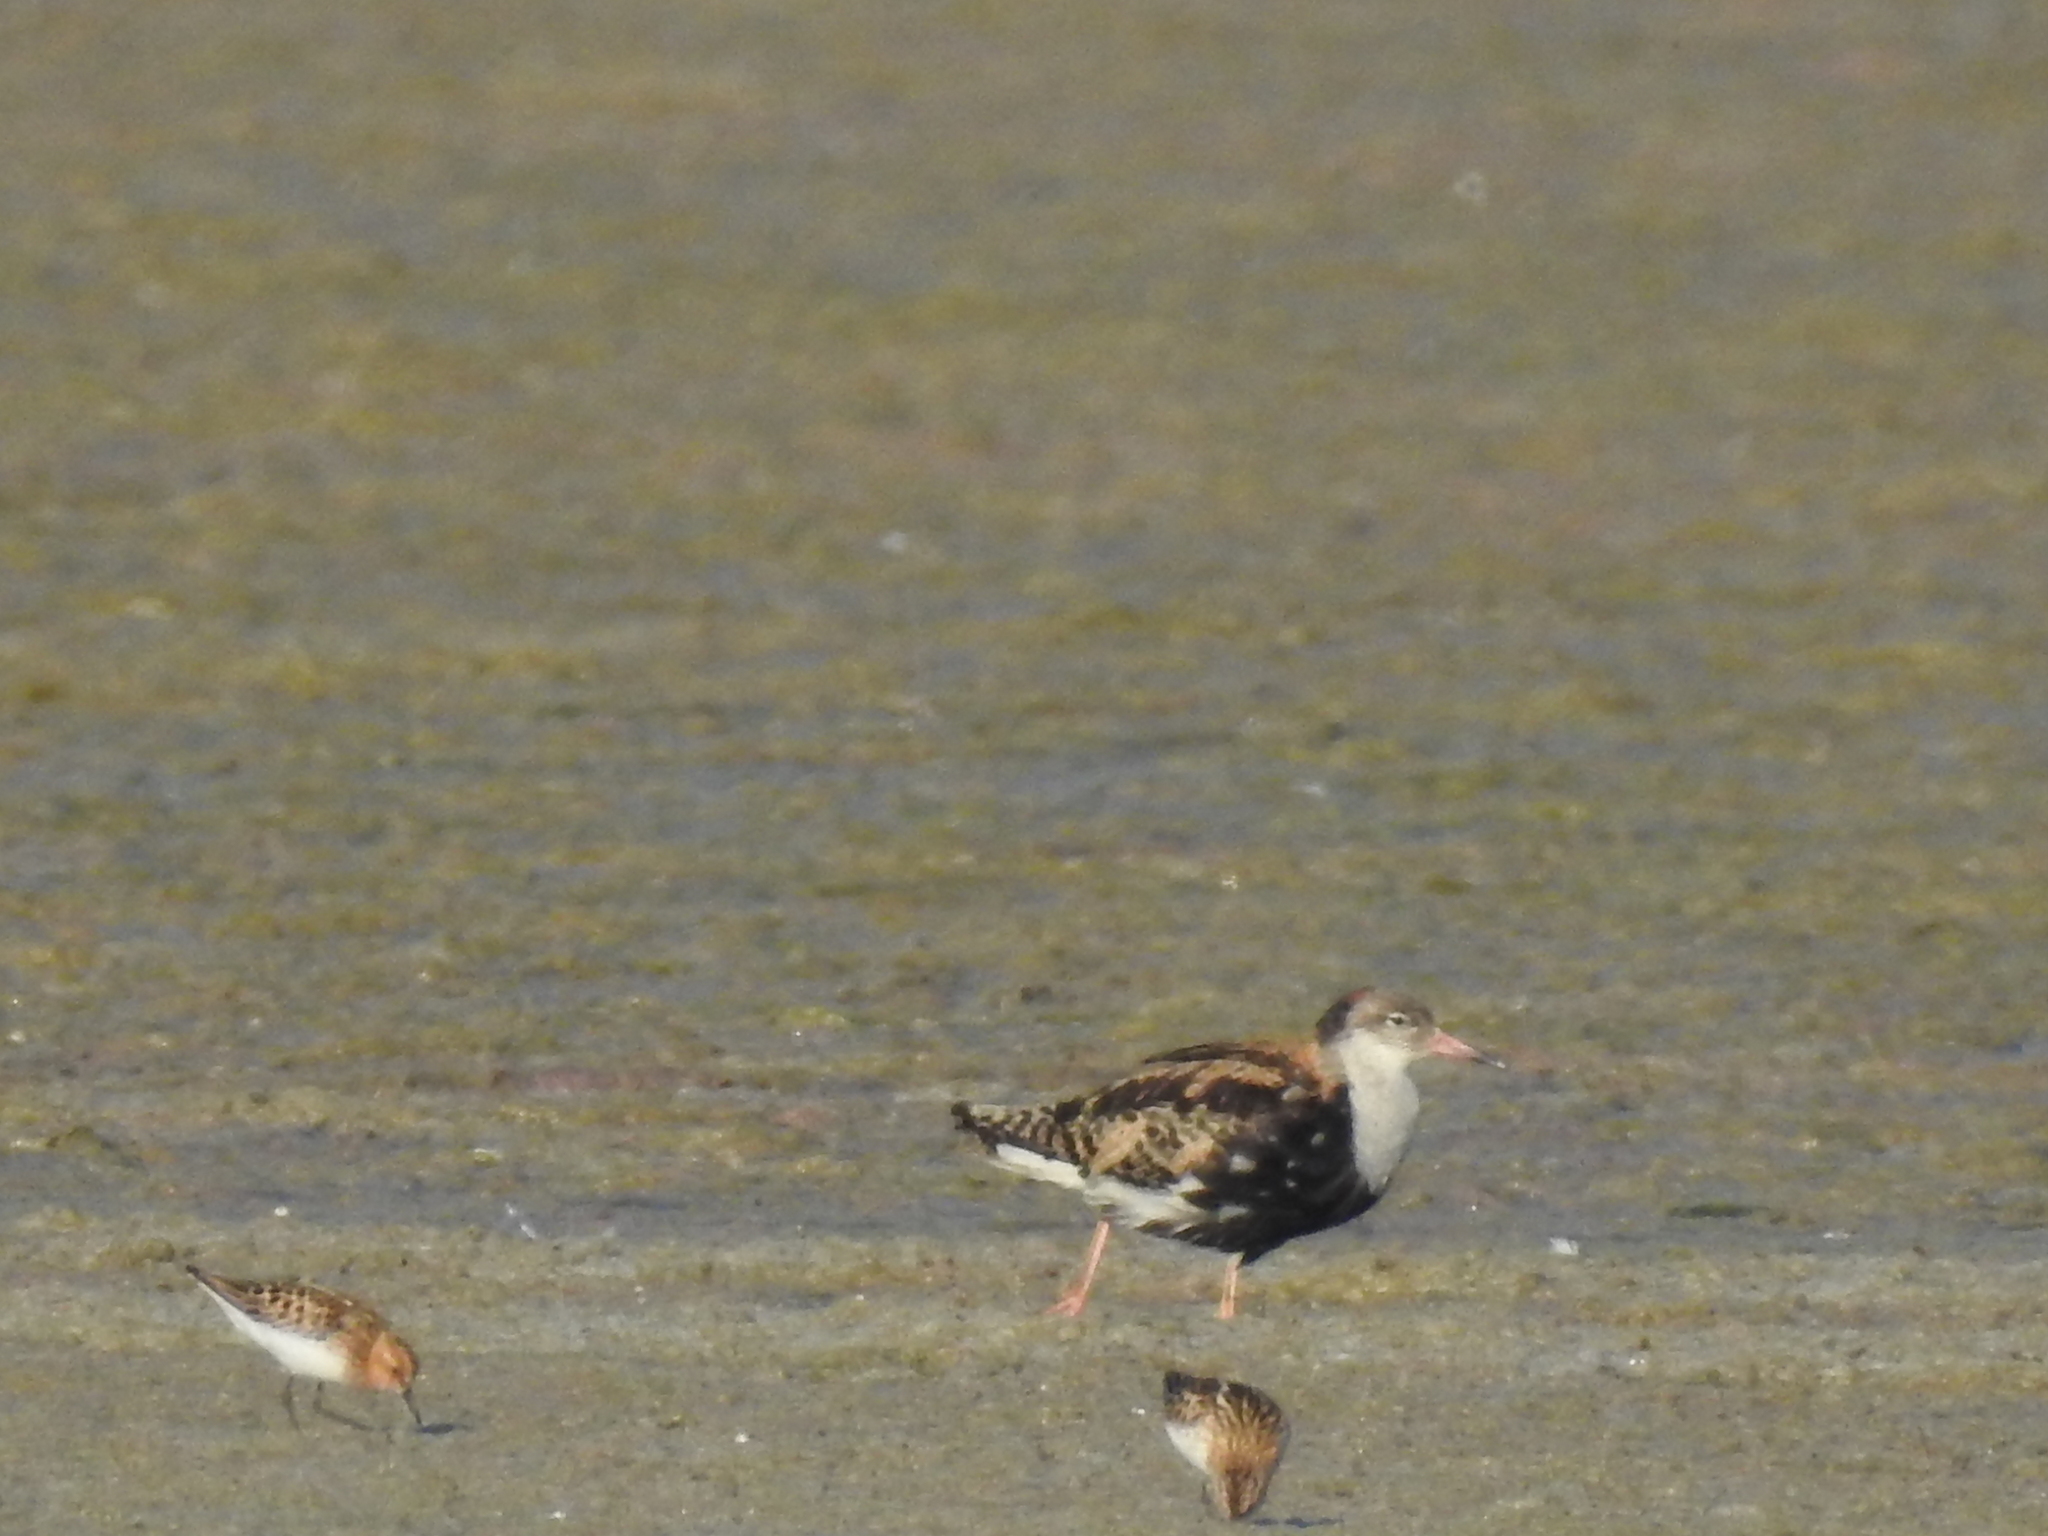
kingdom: Animalia
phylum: Chordata
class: Aves
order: Charadriiformes
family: Scolopacidae
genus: Calidris
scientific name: Calidris pugnax
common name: Ruff
